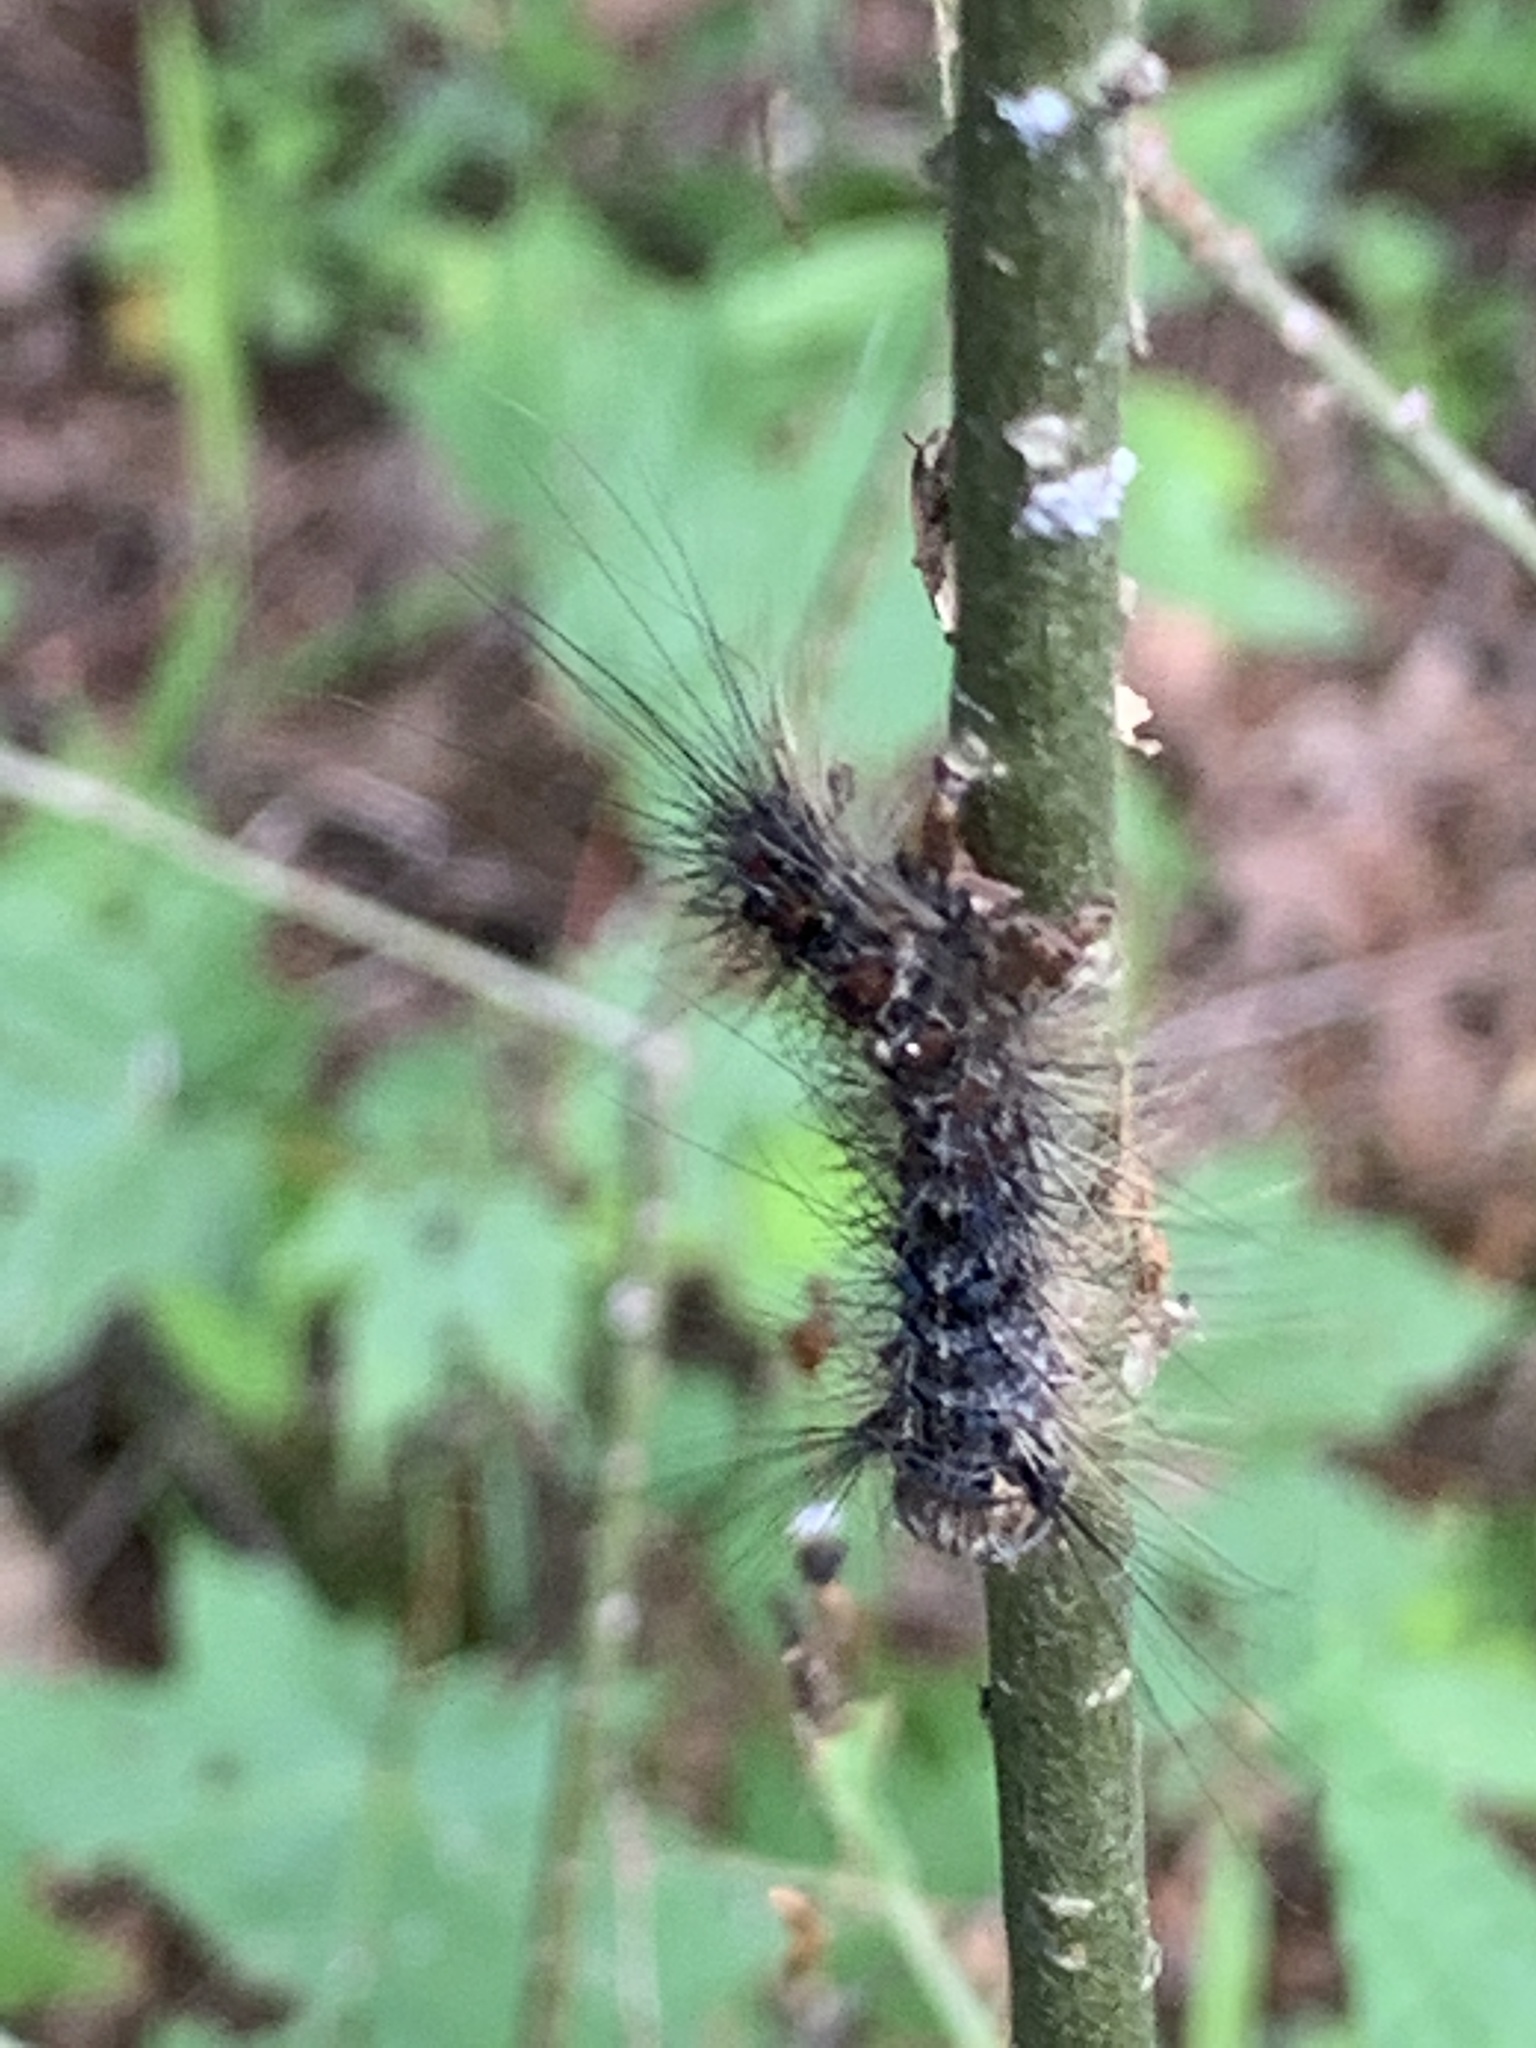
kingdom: Animalia
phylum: Arthropoda
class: Insecta
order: Lepidoptera
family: Erebidae
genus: Lymantria
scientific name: Lymantria dispar
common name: Gypsy moth
